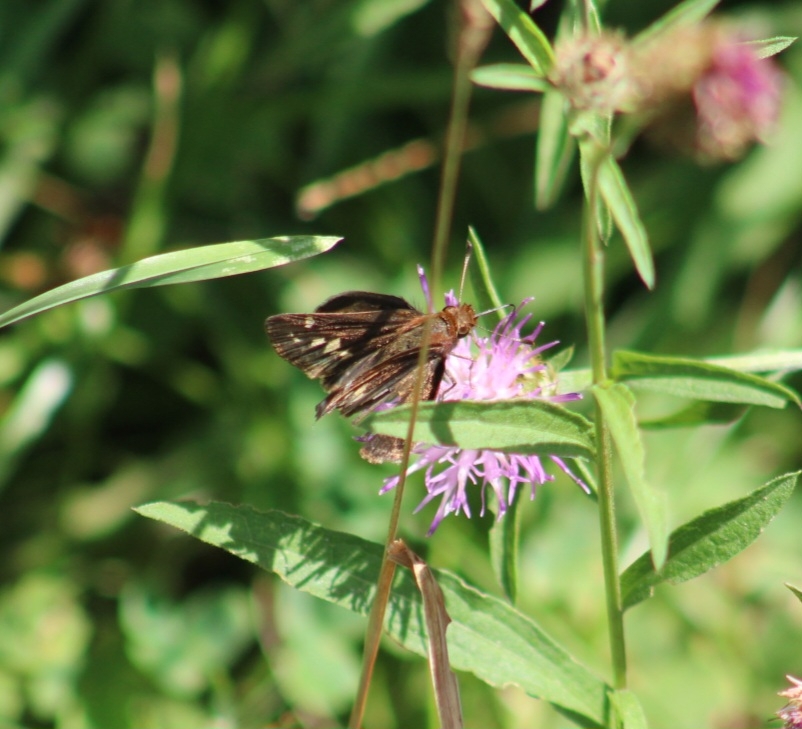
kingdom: Animalia
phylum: Arthropoda
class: Insecta
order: Lepidoptera
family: Hesperiidae
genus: Lon
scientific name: Lon zabulon
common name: Zabulon skipper
